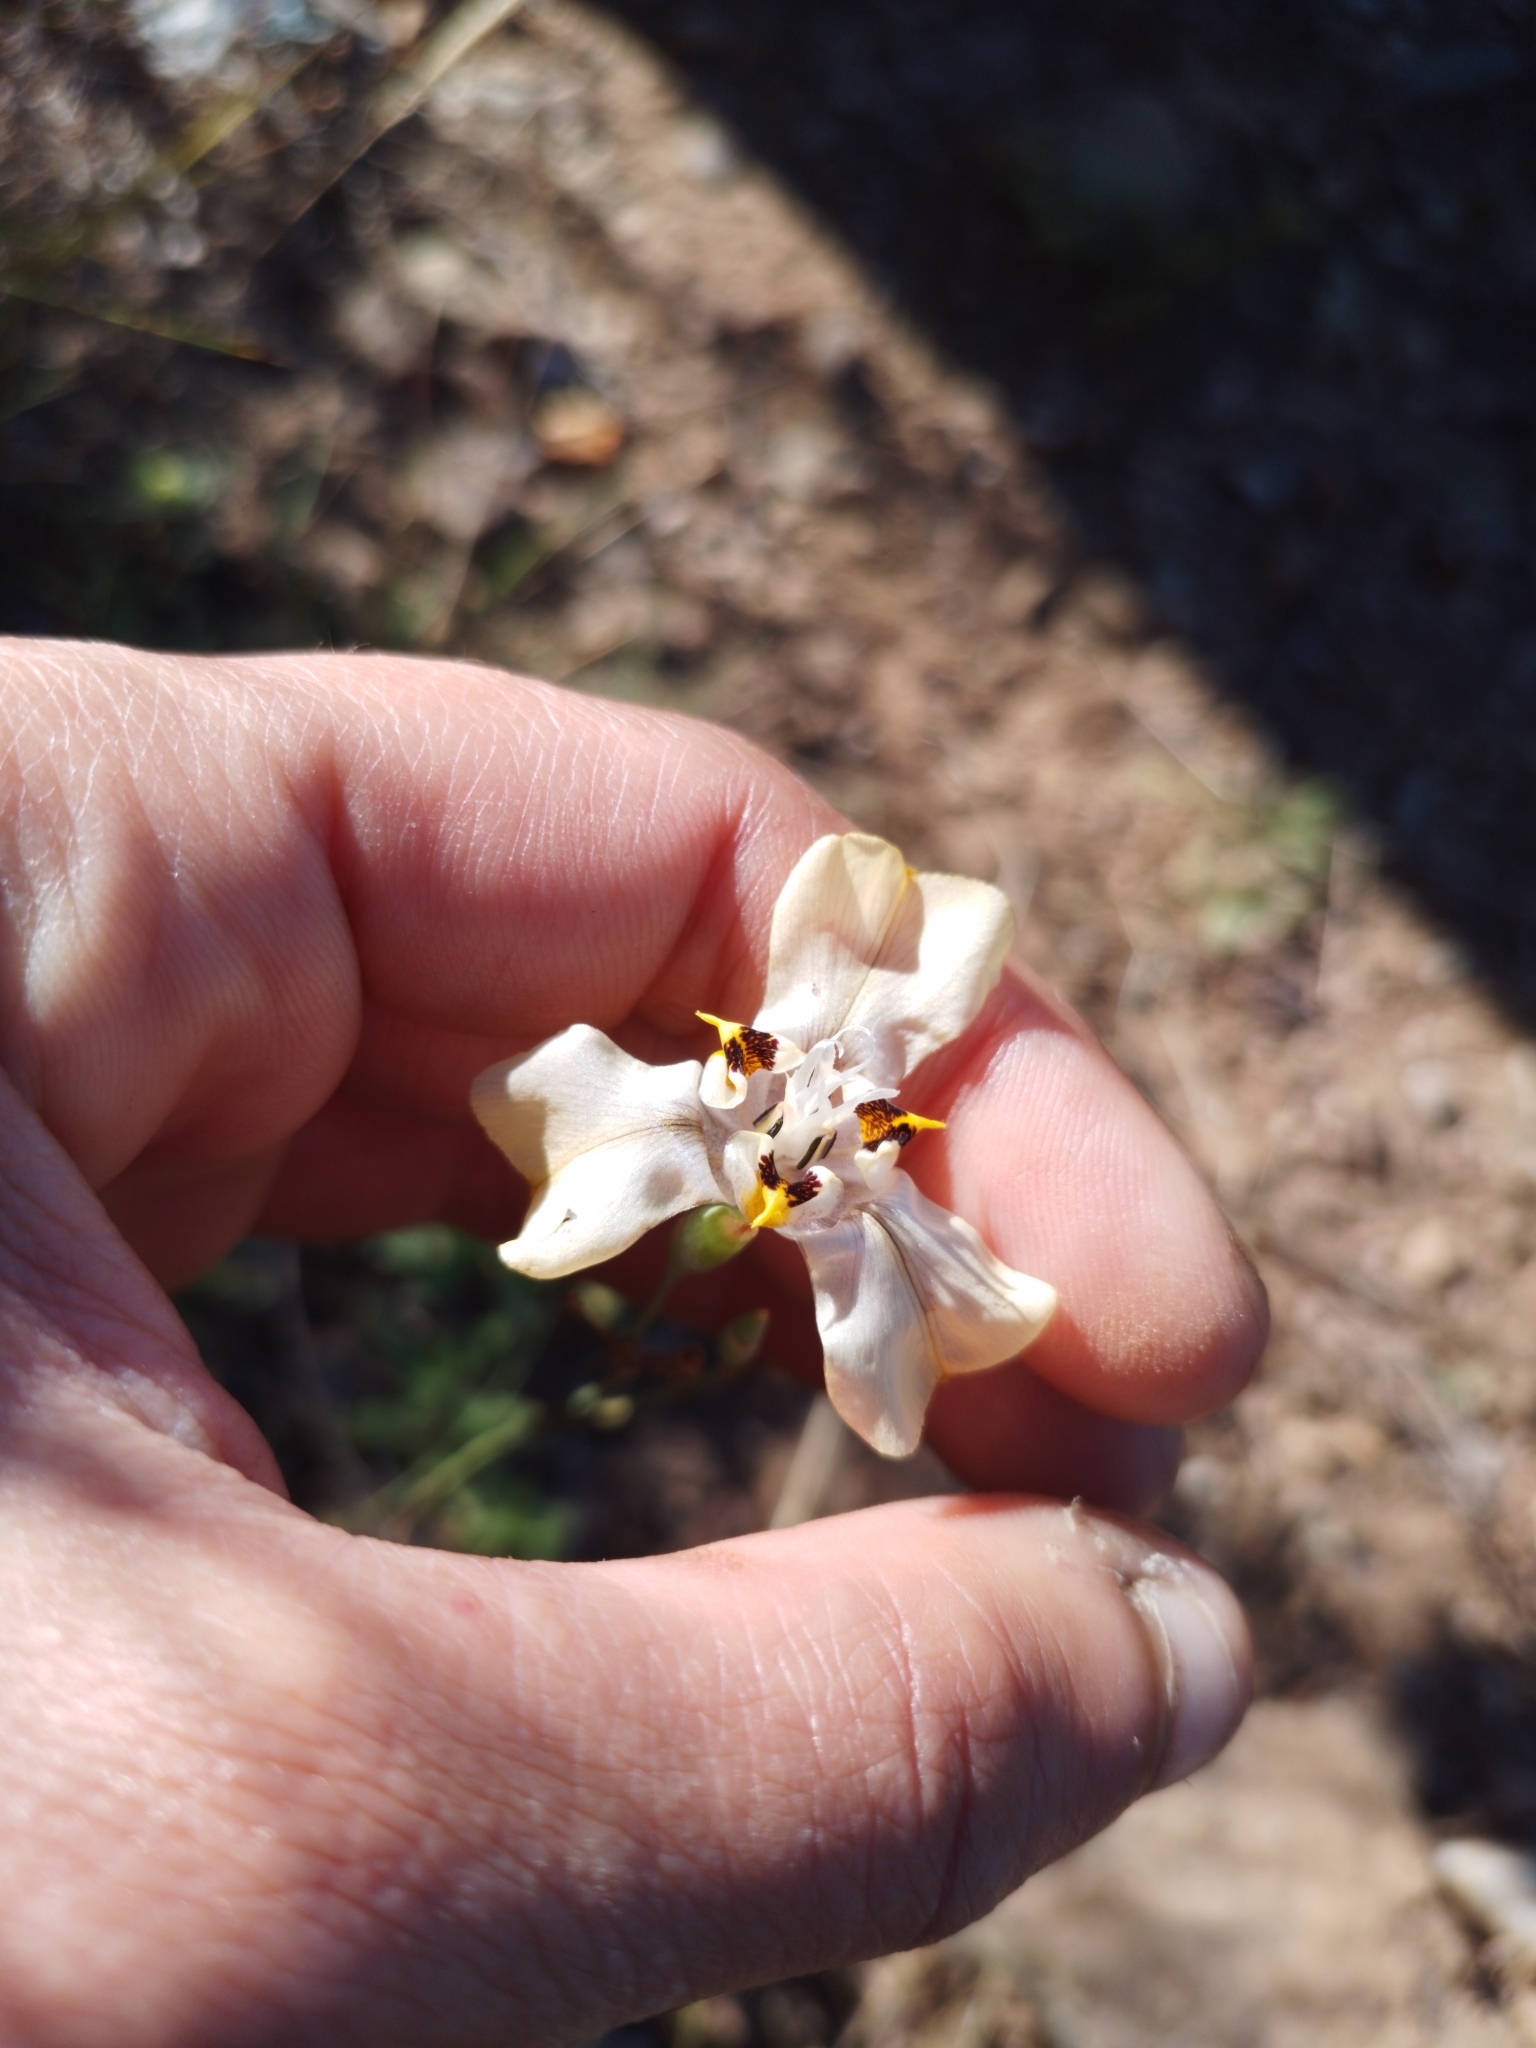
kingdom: Plantae
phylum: Tracheophyta
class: Liliopsida
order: Asparagales
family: Iridaceae
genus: Cypella
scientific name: Cypella osteniana
